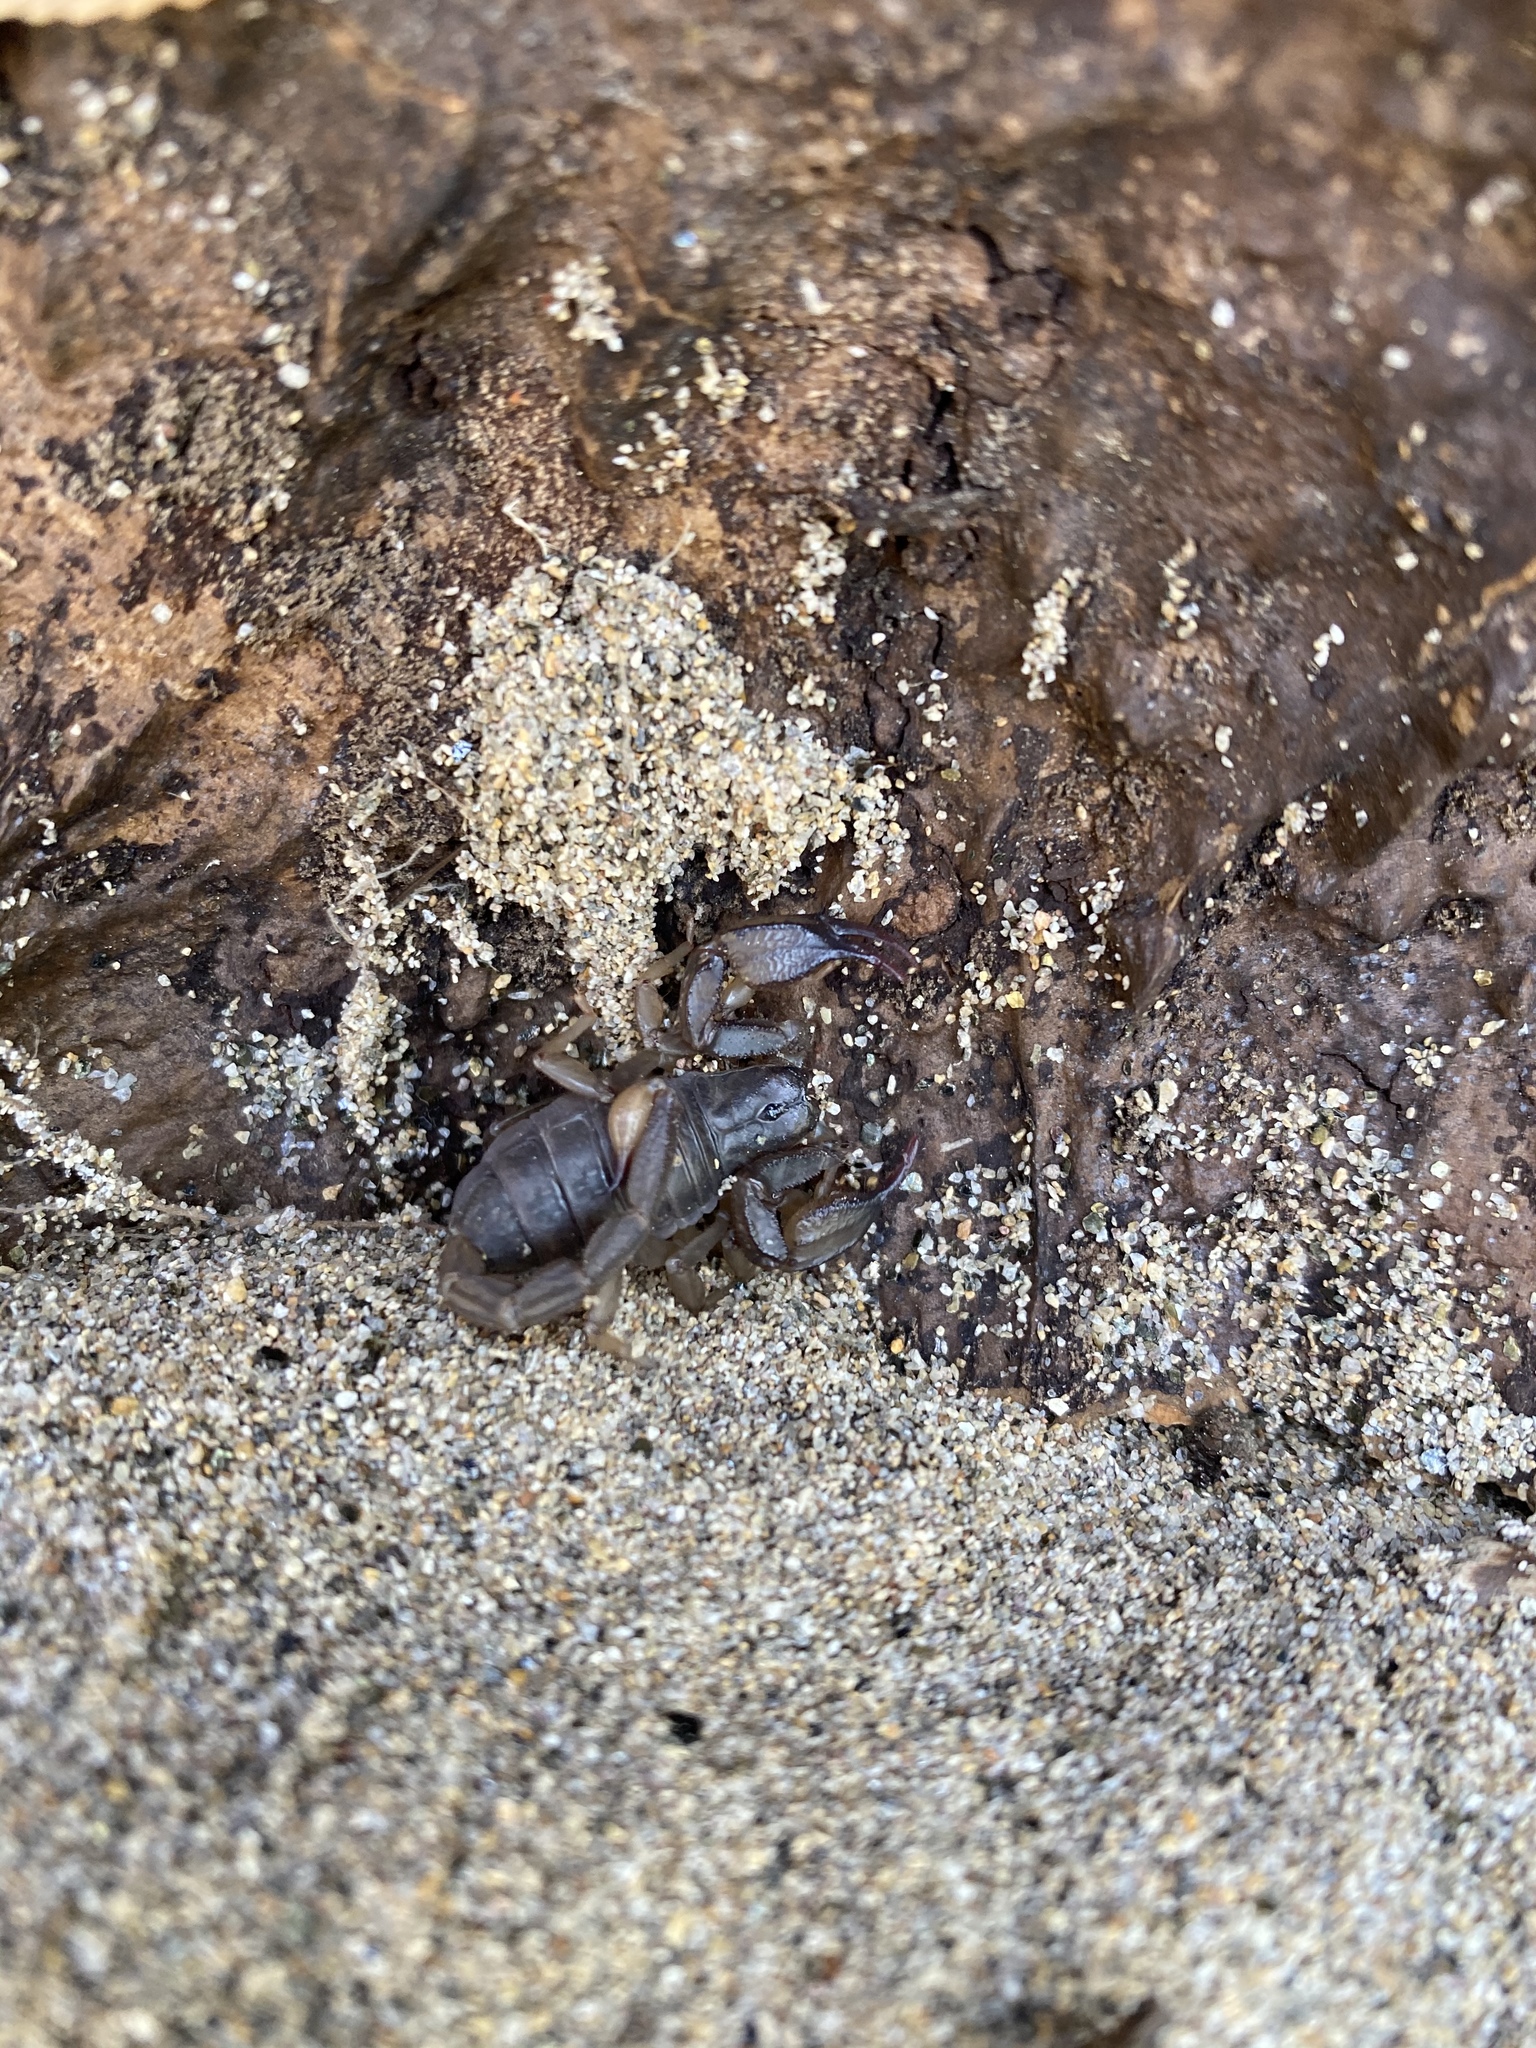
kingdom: Animalia
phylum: Arthropoda
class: Arachnida
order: Scorpiones
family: Chactidae
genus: Uroctonus
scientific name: Uroctonus mordax
